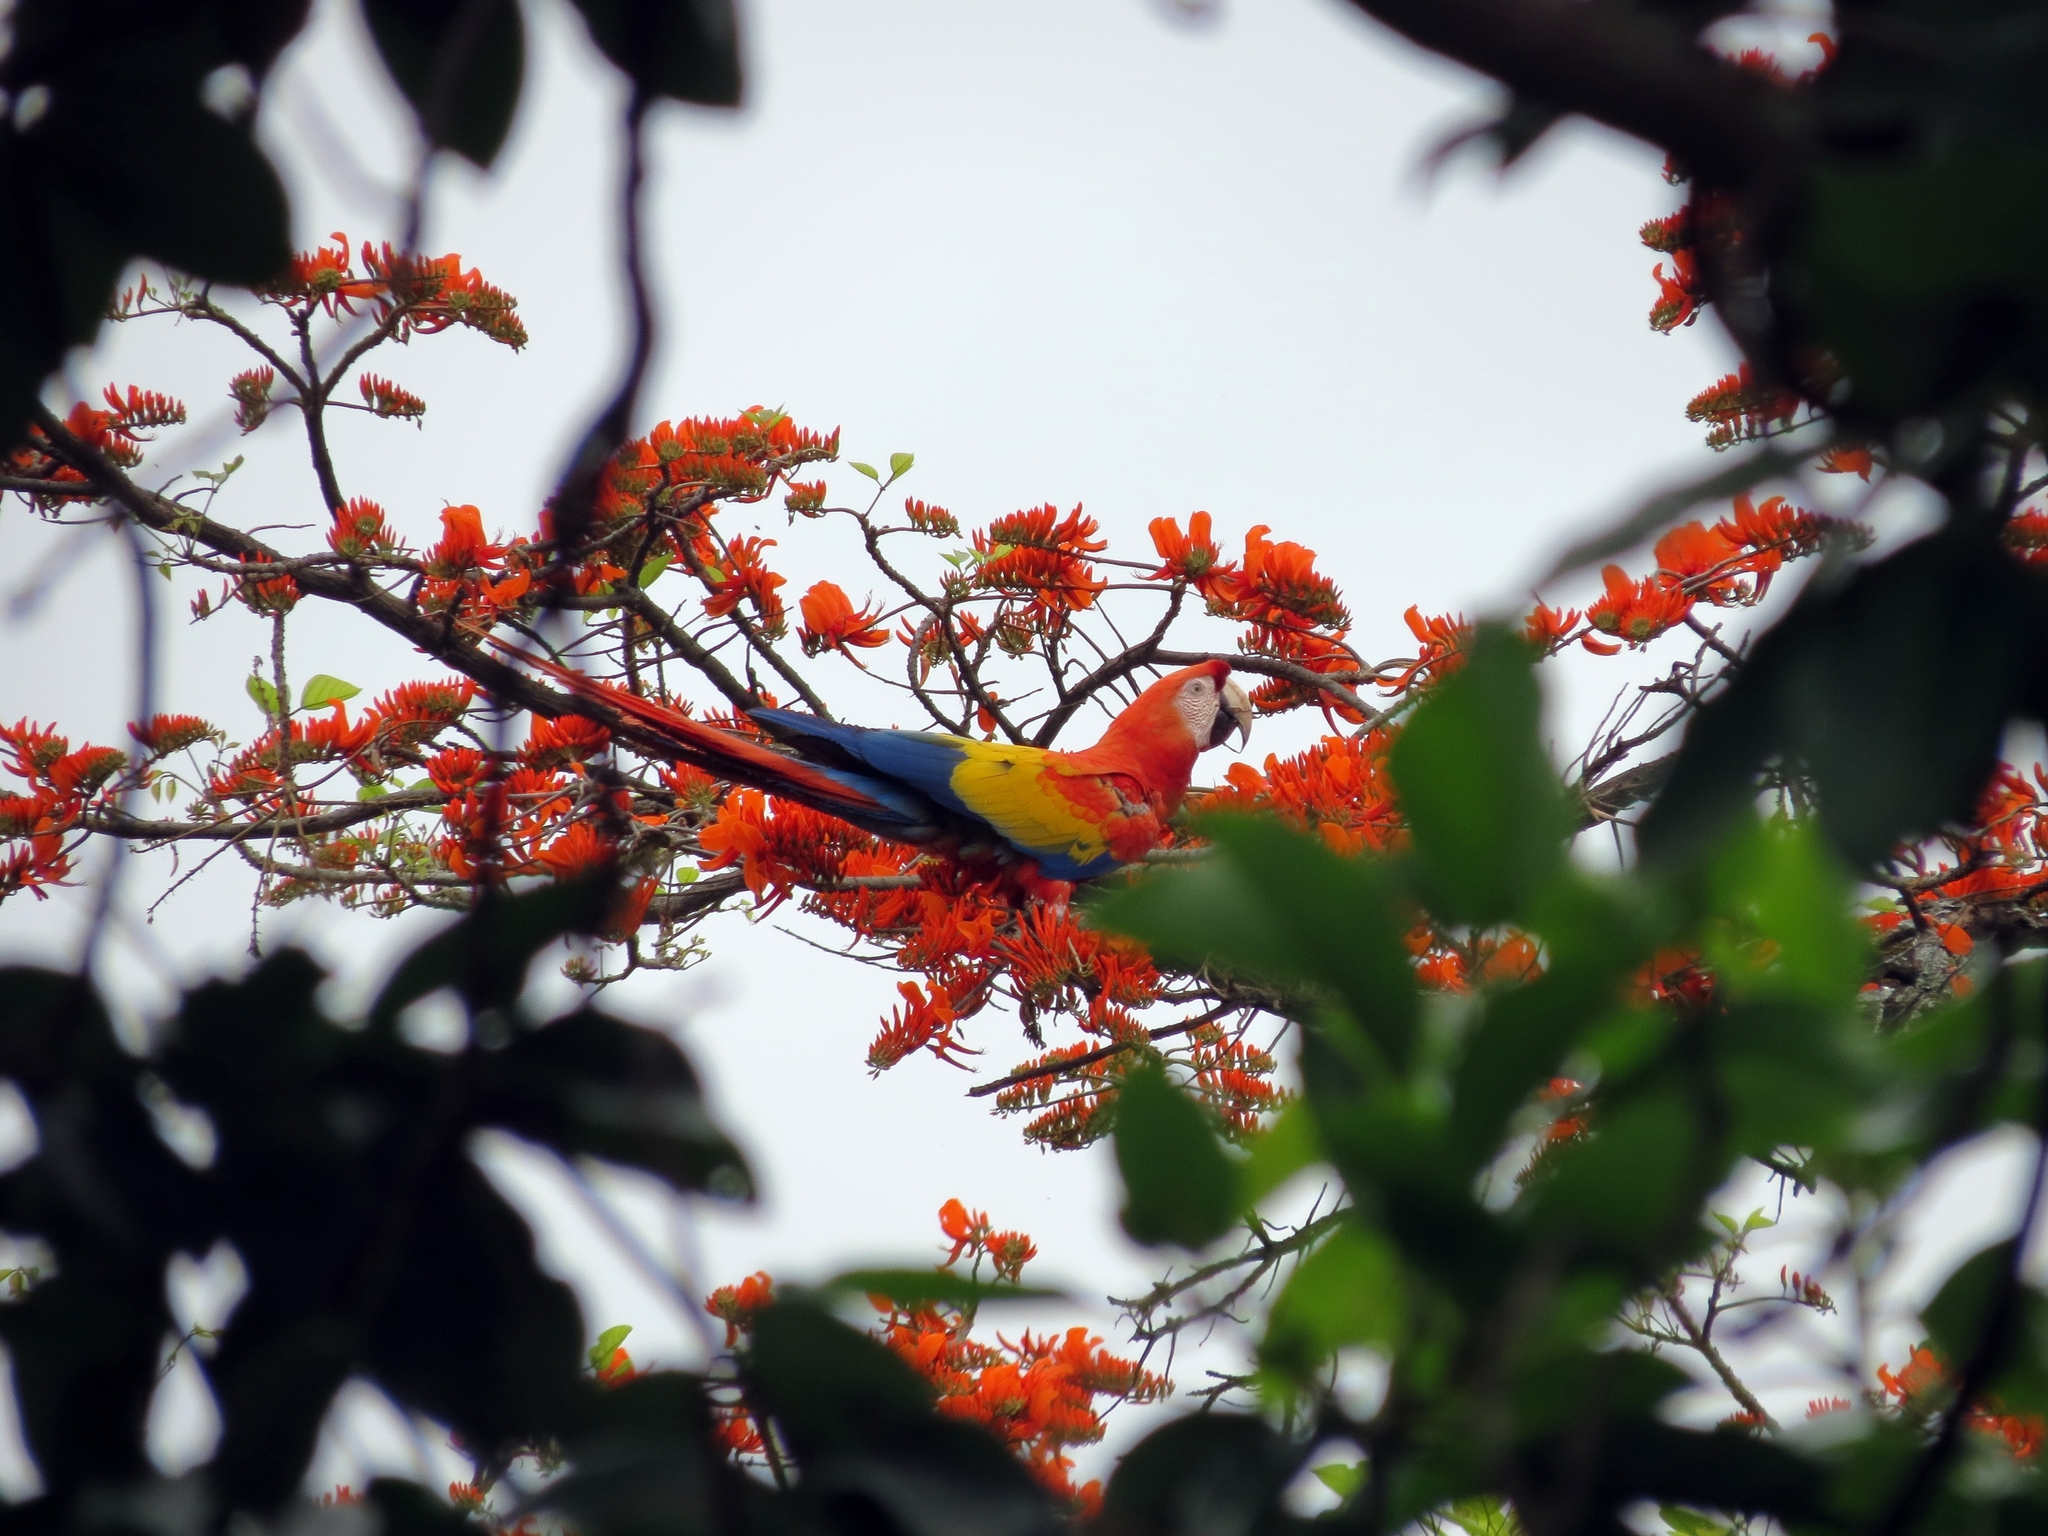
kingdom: Animalia
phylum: Chordata
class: Aves
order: Psittaciformes
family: Psittacidae
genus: Ara
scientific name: Ara macao
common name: Scarlet macaw
